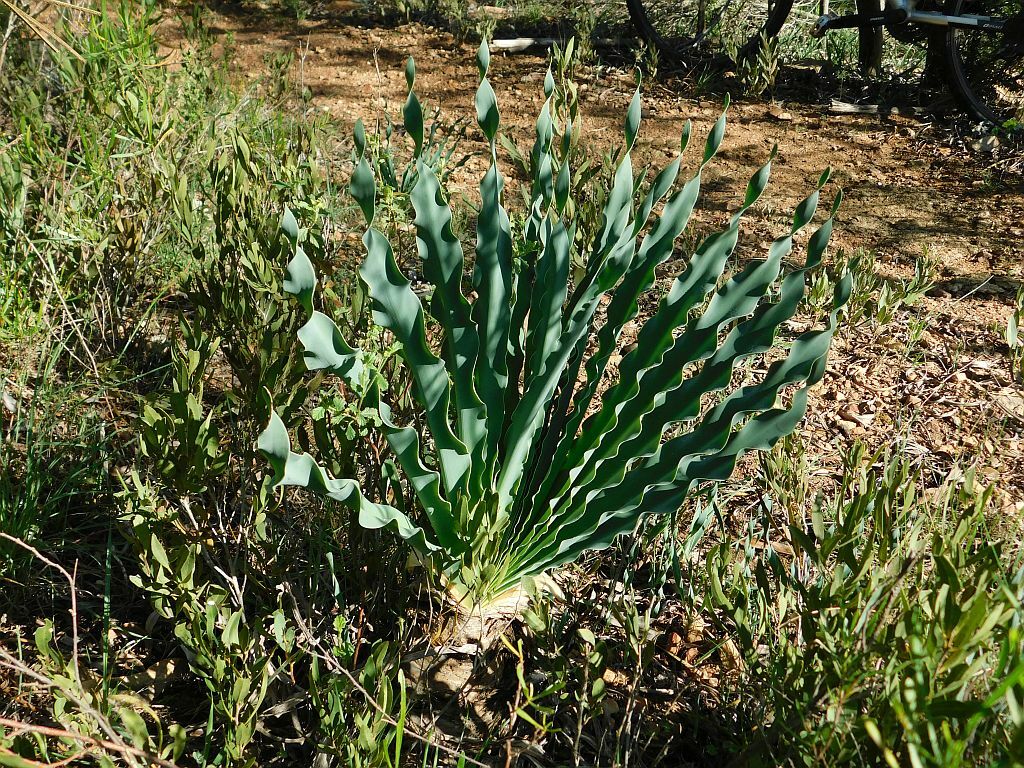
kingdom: Plantae
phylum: Tracheophyta
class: Liliopsida
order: Asparagales
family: Amaryllidaceae
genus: Boophone
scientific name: Boophone disticha
